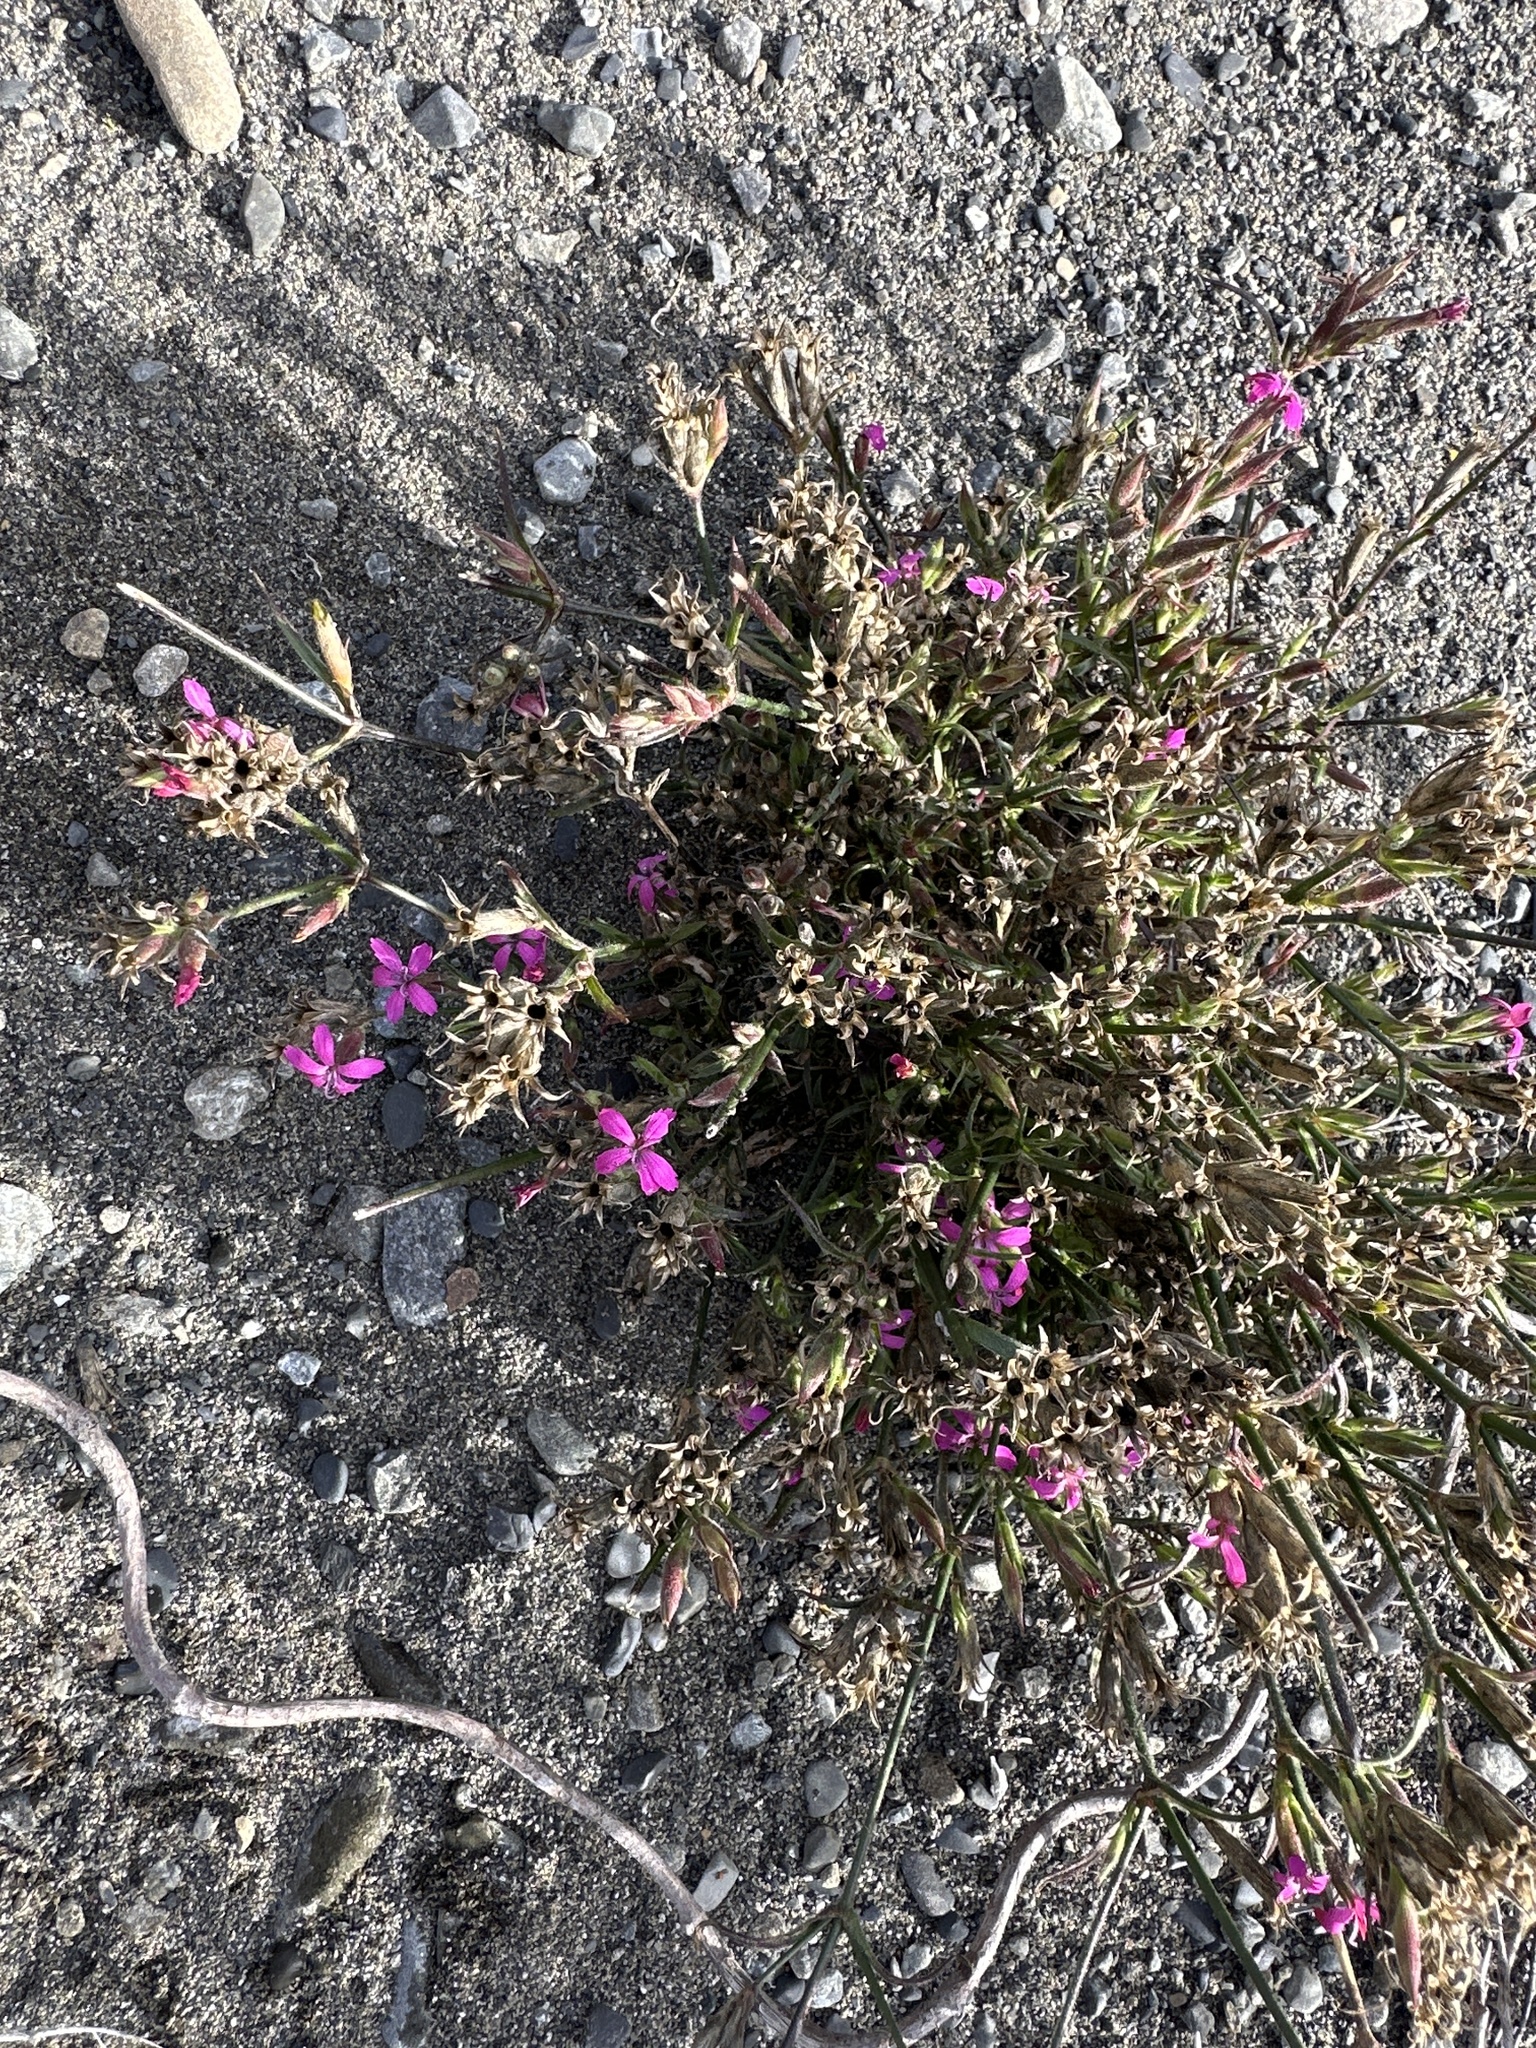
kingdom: Plantae
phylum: Tracheophyta
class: Magnoliopsida
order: Caryophyllales
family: Caryophyllaceae
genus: Dianthus
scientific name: Dianthus armeria
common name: Deptford pink
